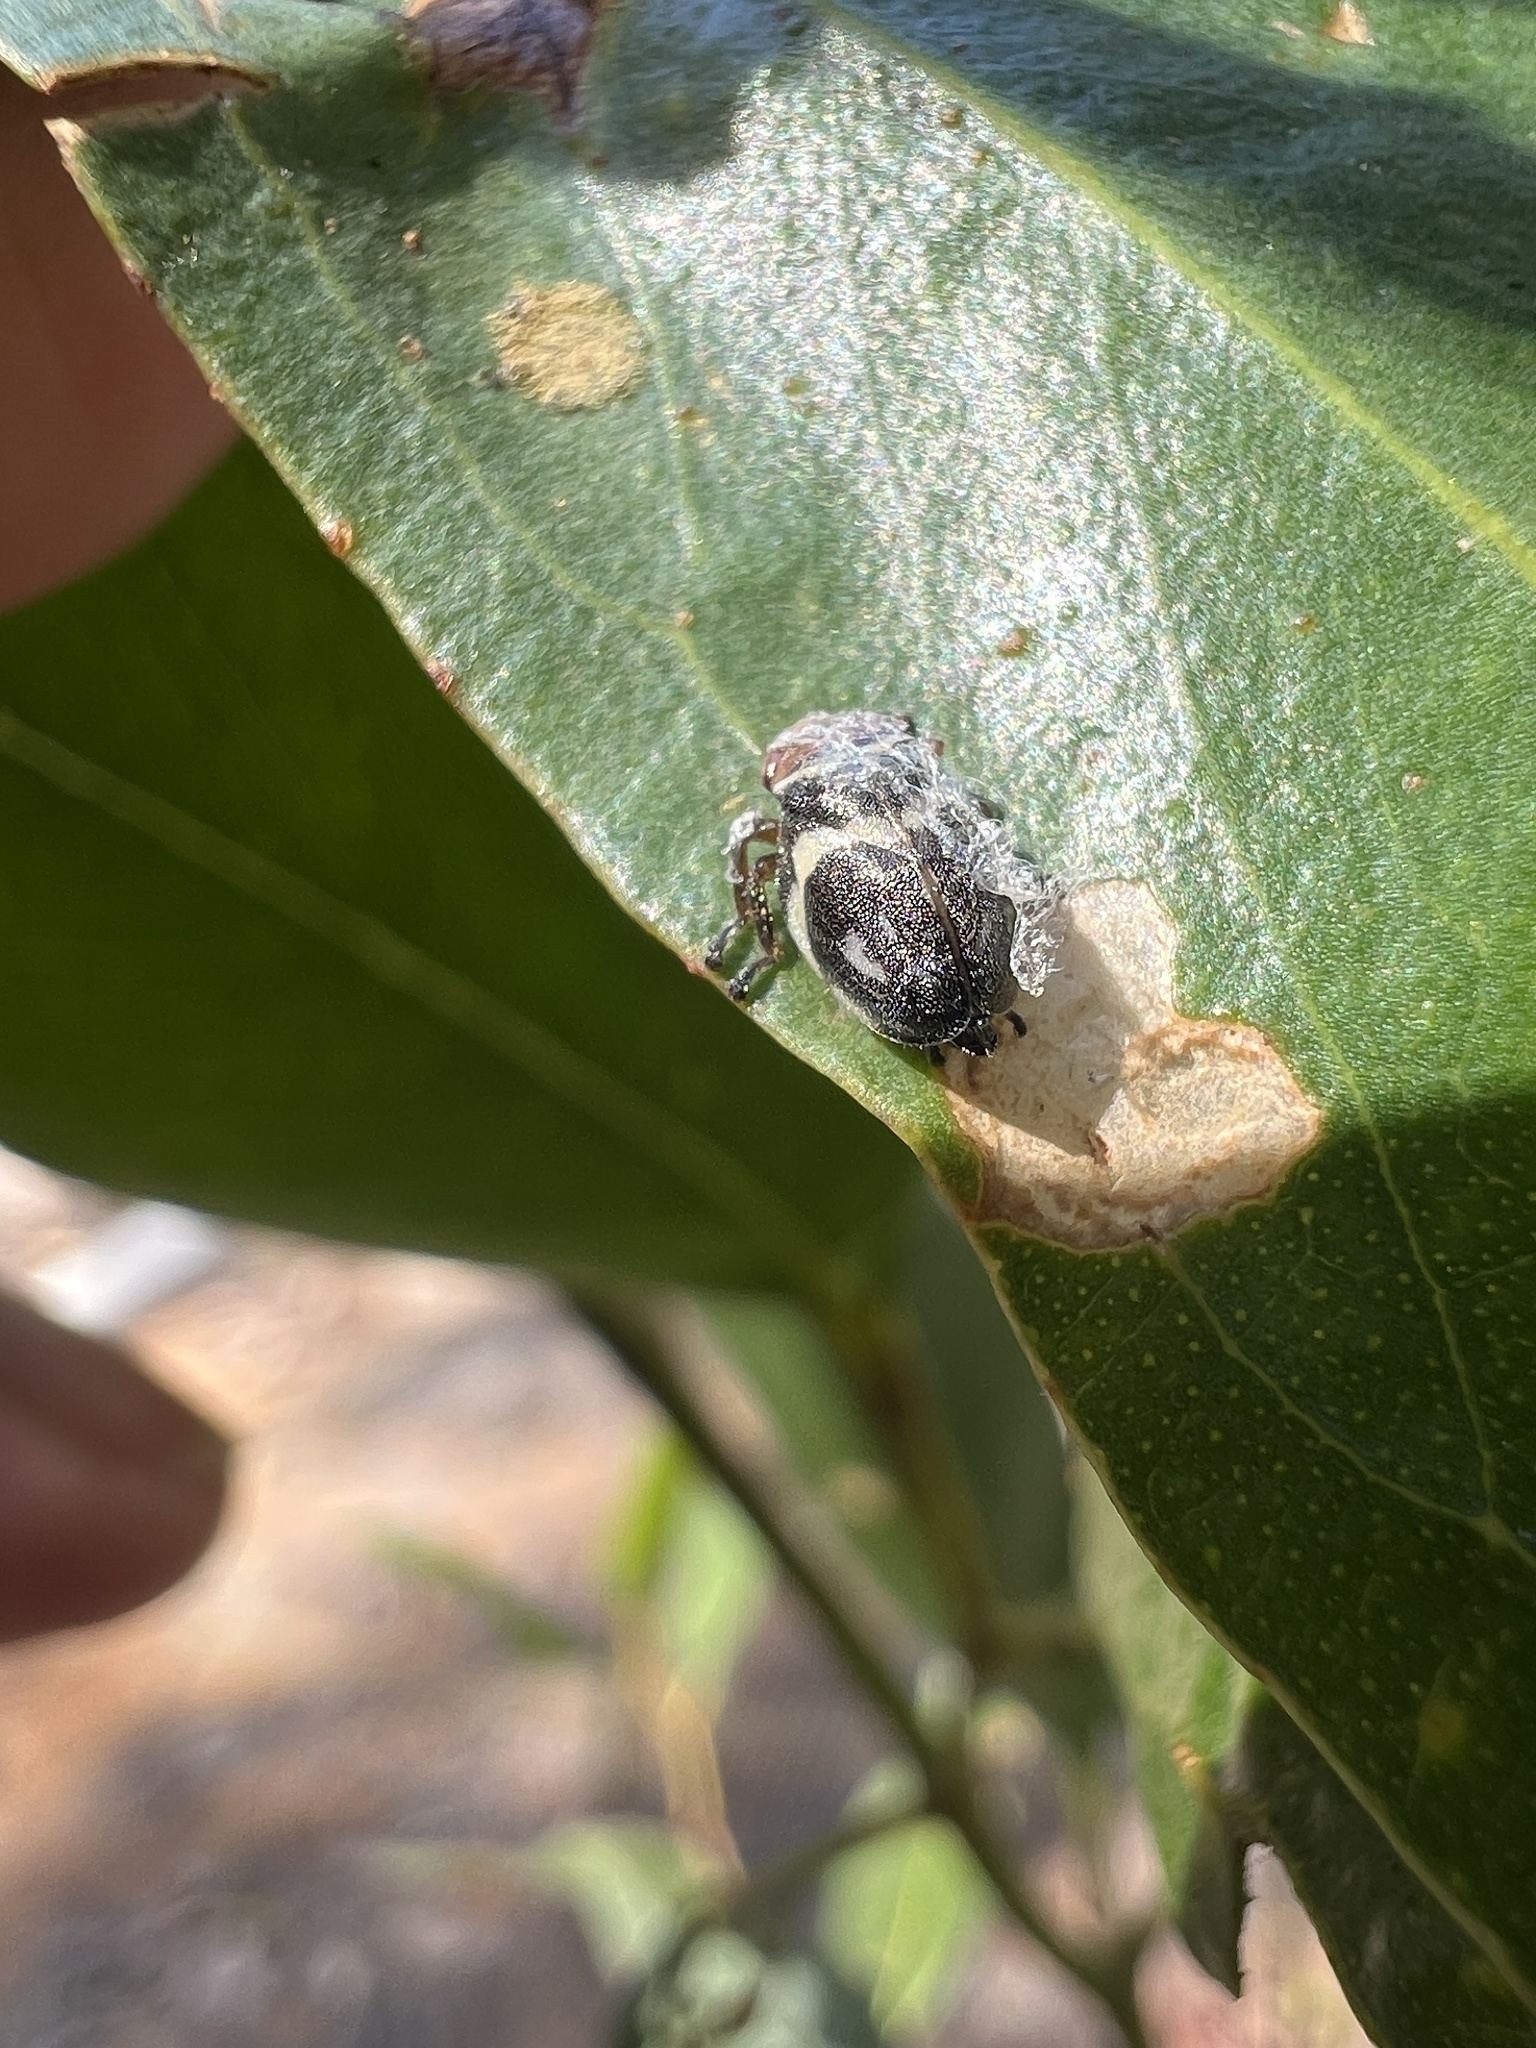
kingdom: Animalia
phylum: Arthropoda
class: Insecta
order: Hemiptera
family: Aphrophoridae
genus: Bathyllus
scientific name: Bathyllus albicinctus
